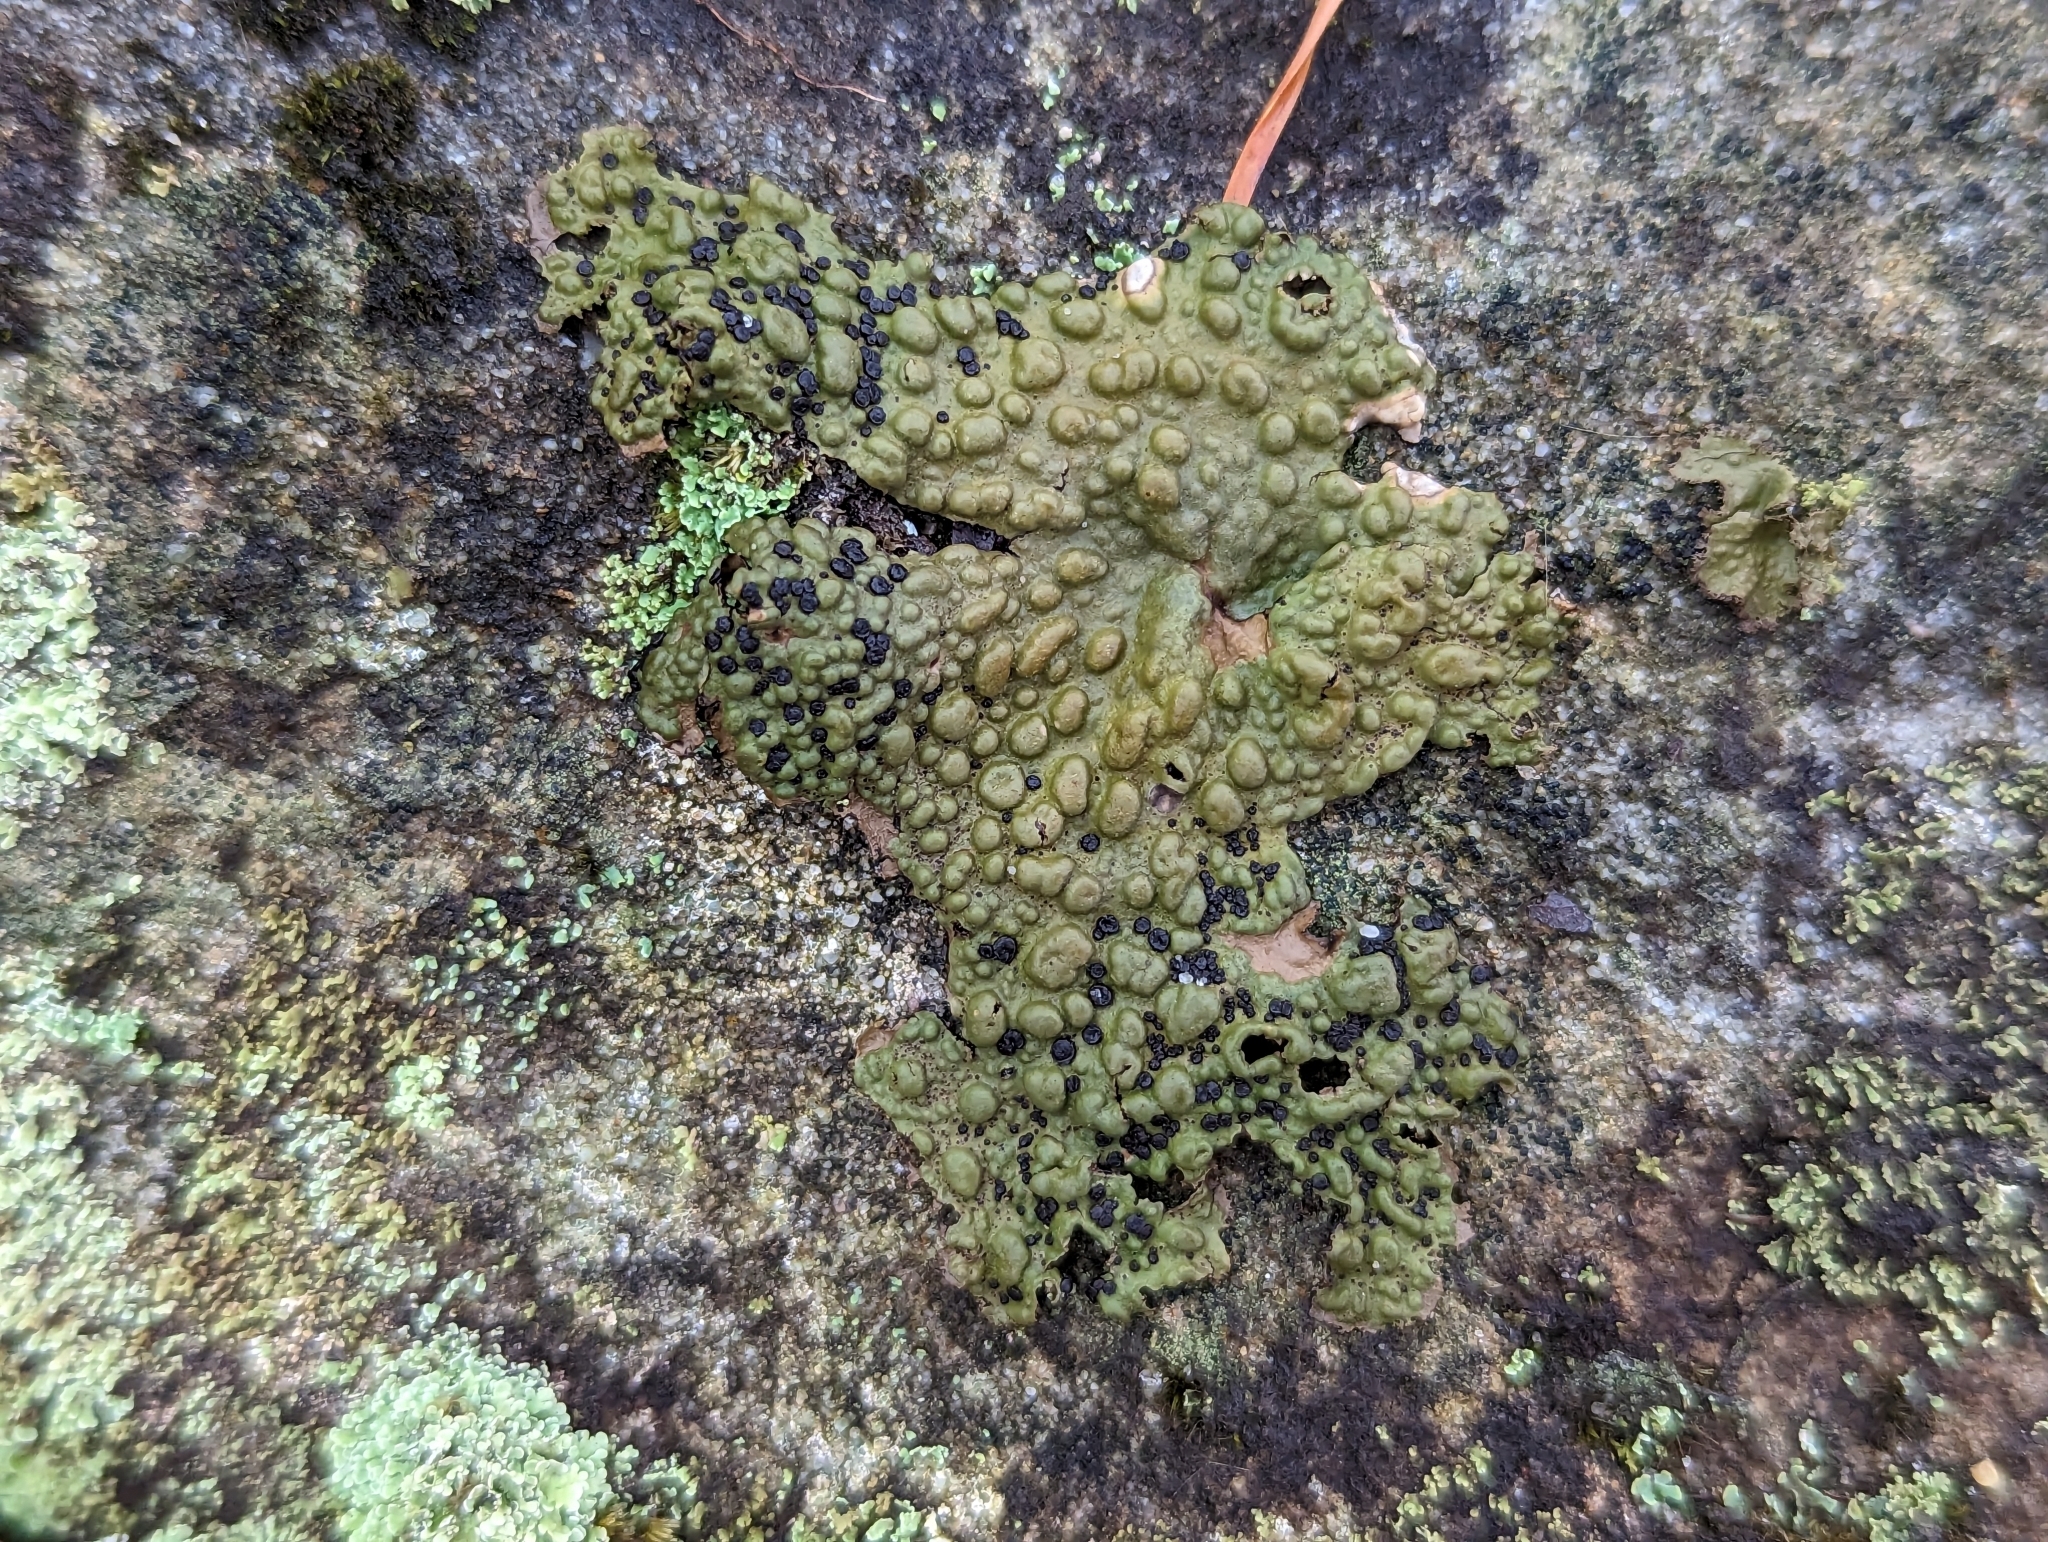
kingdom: Fungi
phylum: Ascomycota
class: Lecanoromycetes
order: Umbilicariales
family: Umbilicariaceae
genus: Lasallia
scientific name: Lasallia papulosa
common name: Common toadskin lichen
